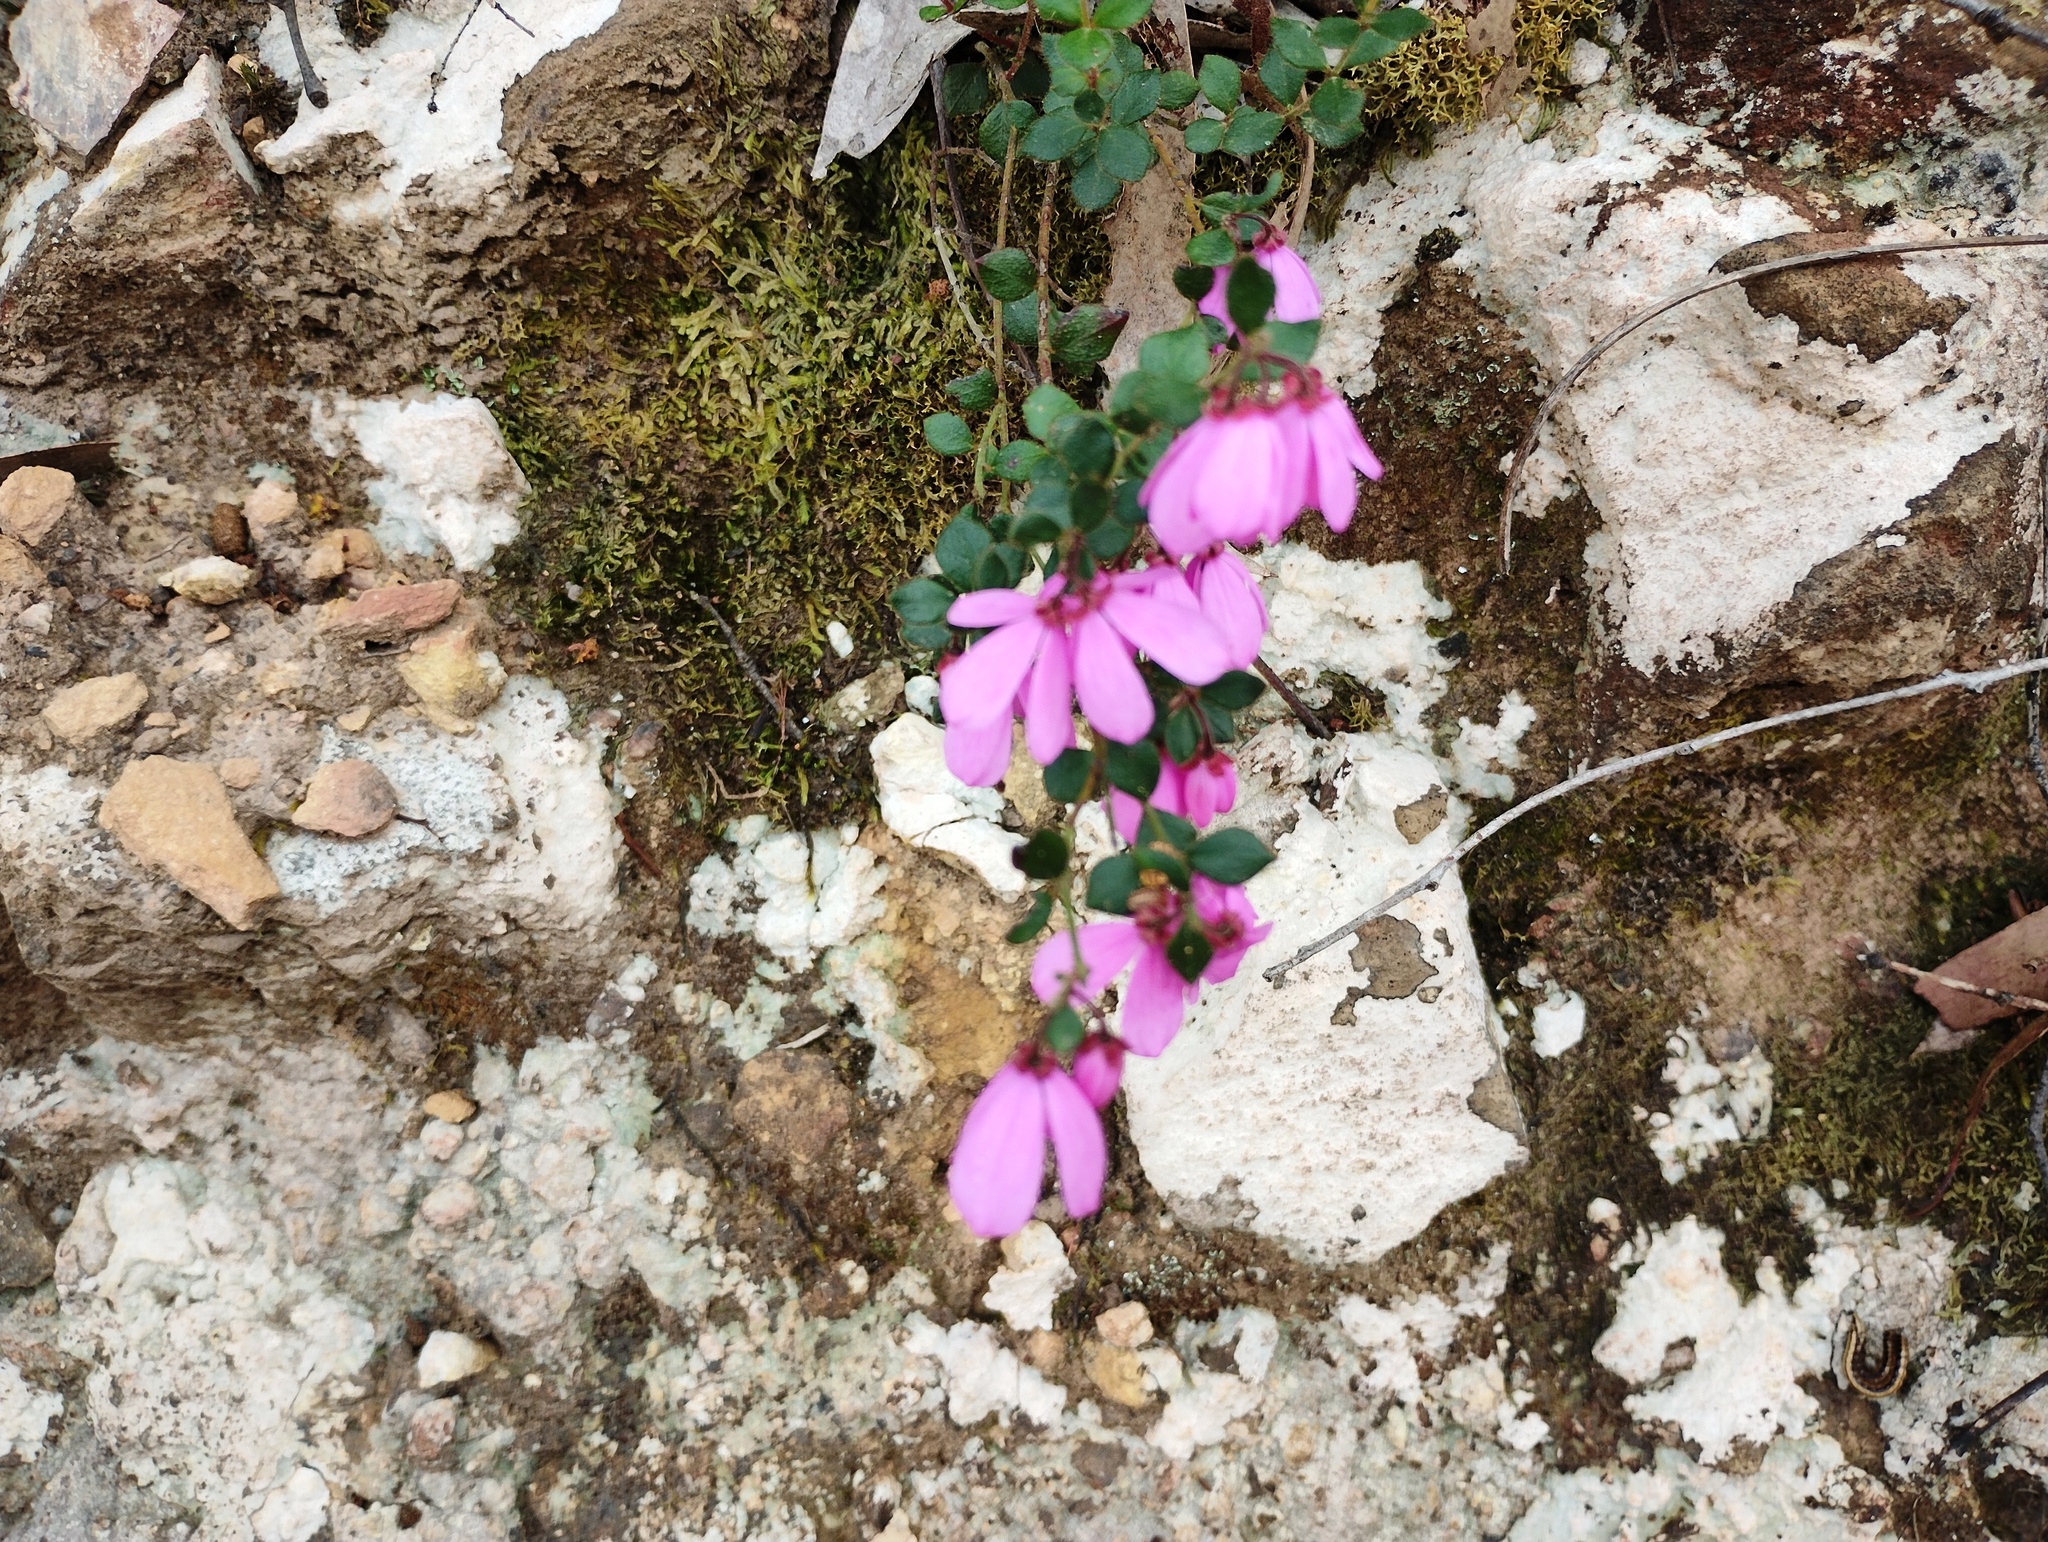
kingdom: Plantae
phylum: Tracheophyta
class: Magnoliopsida
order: Oxalidales
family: Elaeocarpaceae
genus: Tetratheca
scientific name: Tetratheca ciliata
